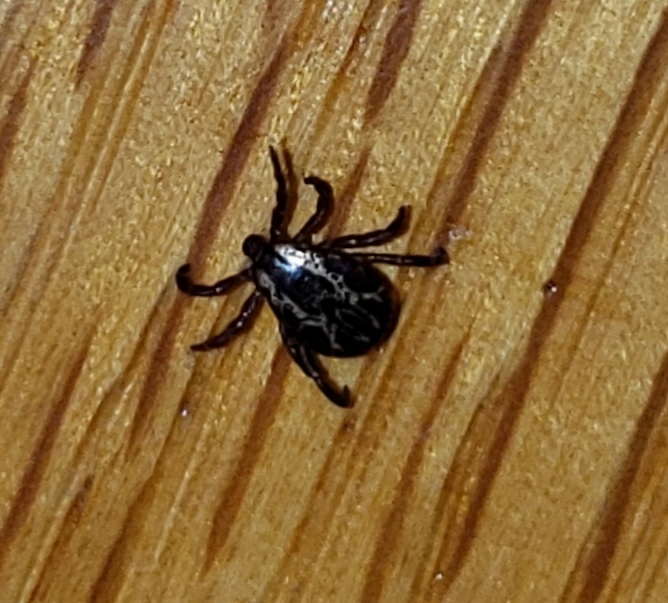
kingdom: Animalia
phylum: Arthropoda
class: Arachnida
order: Ixodida
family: Ixodidae
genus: Dermacentor
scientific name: Dermacentor variabilis
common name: American dog tick
